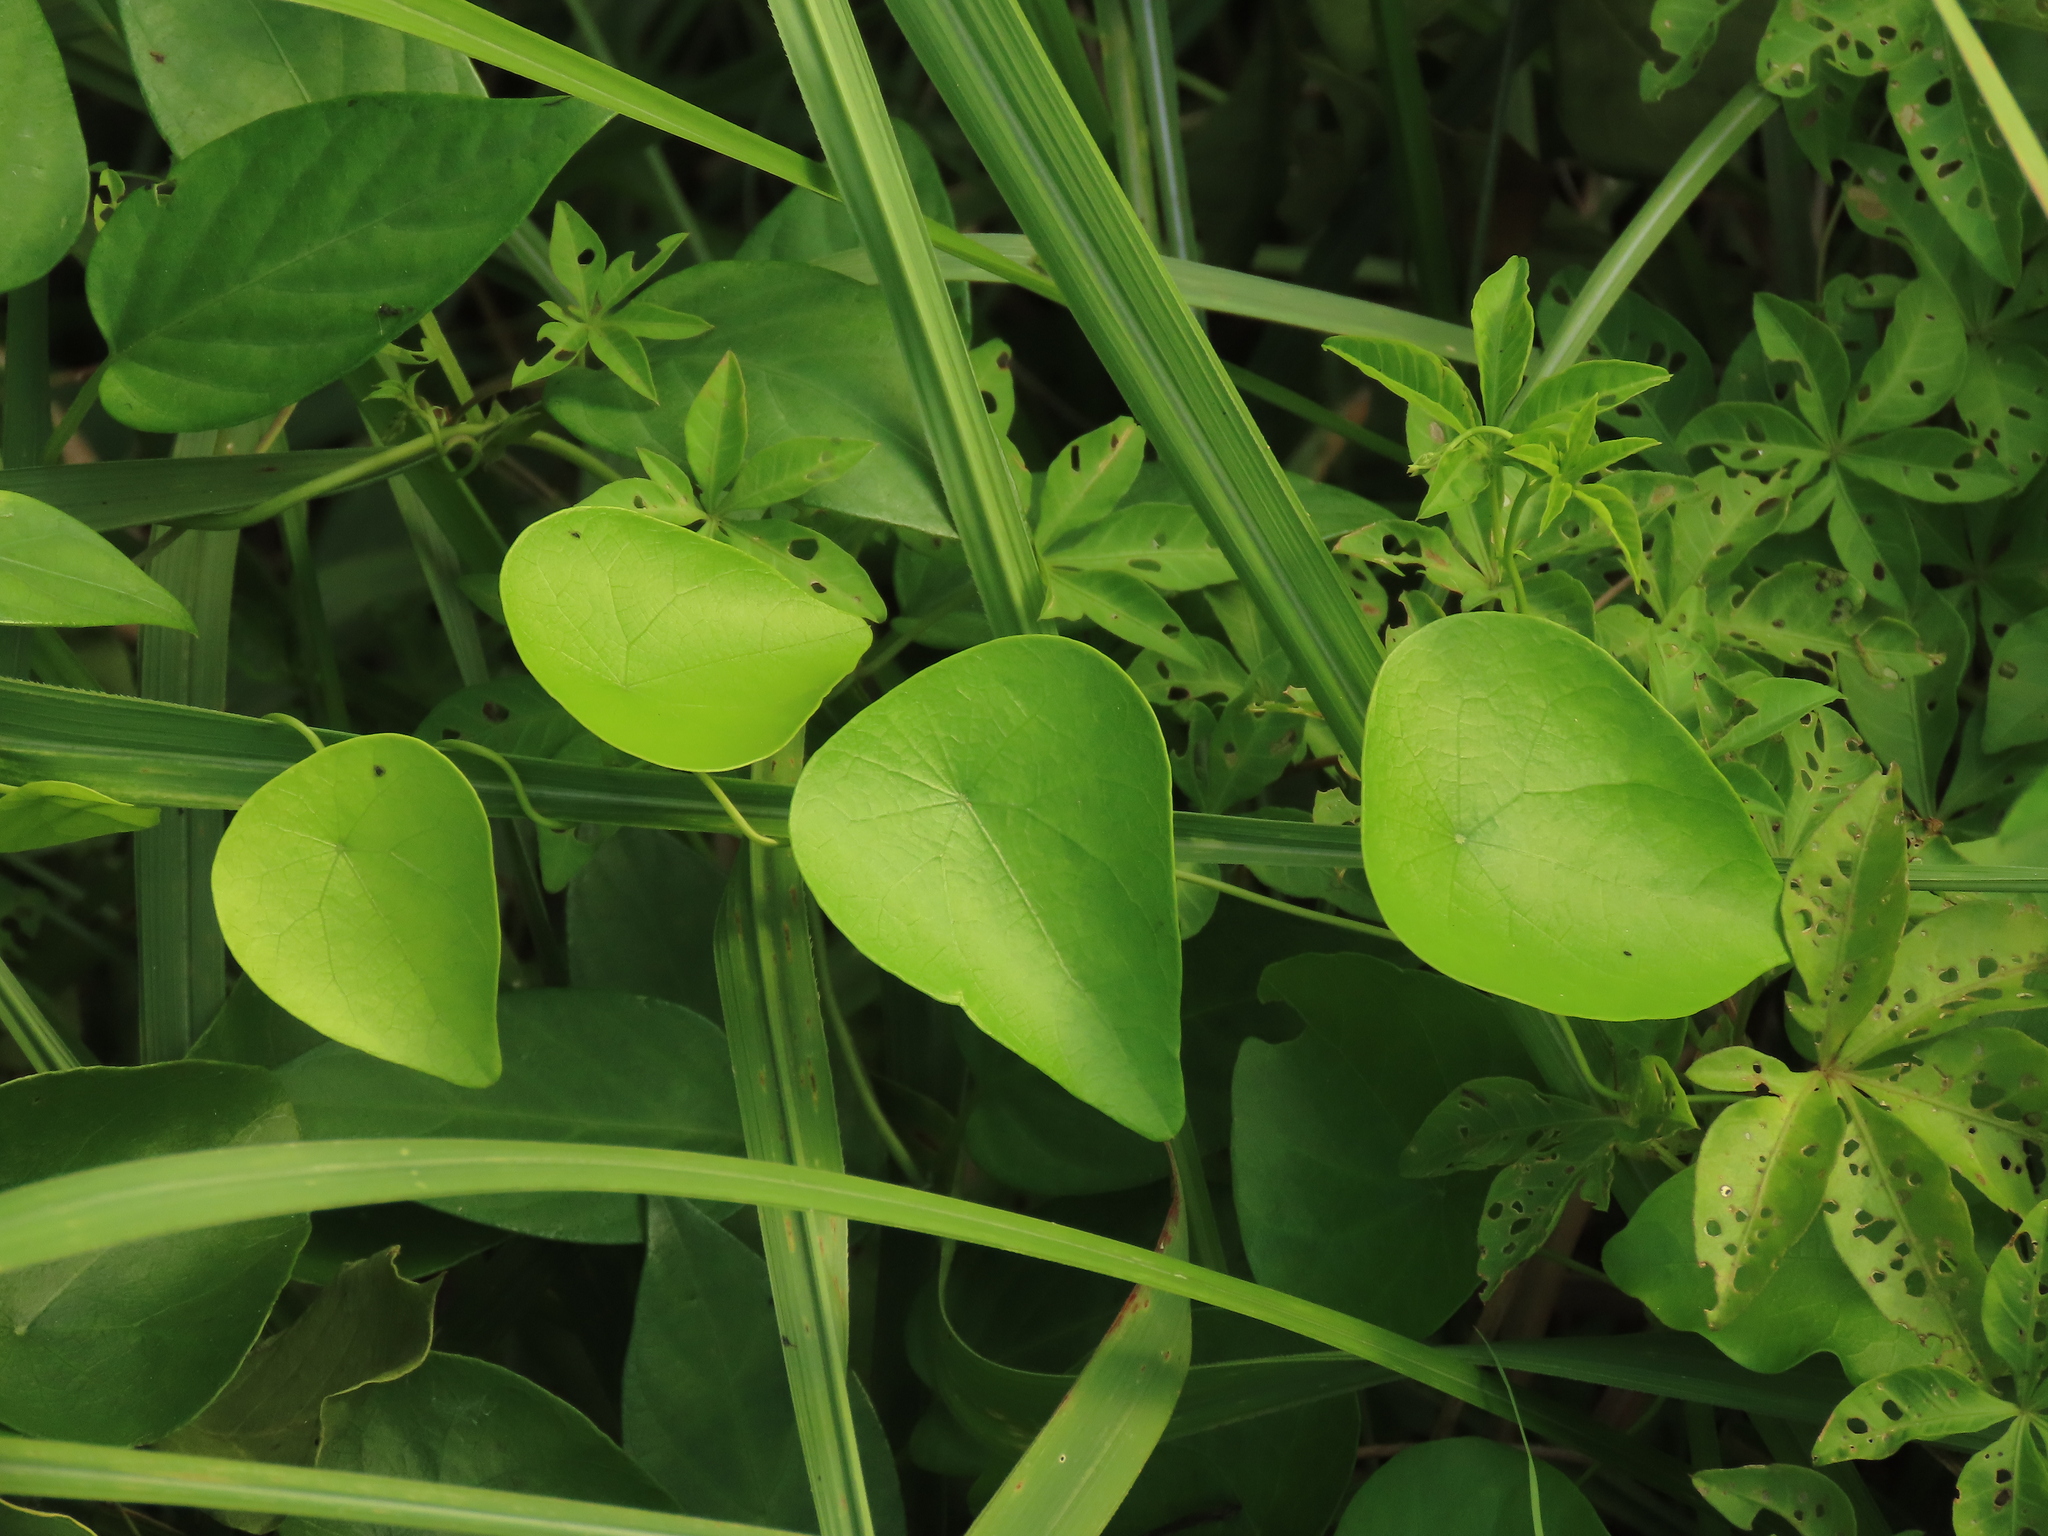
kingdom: Plantae
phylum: Tracheophyta
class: Magnoliopsida
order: Ranunculales
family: Menispermaceae
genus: Stephania
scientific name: Stephania japonica
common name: Snake vine
